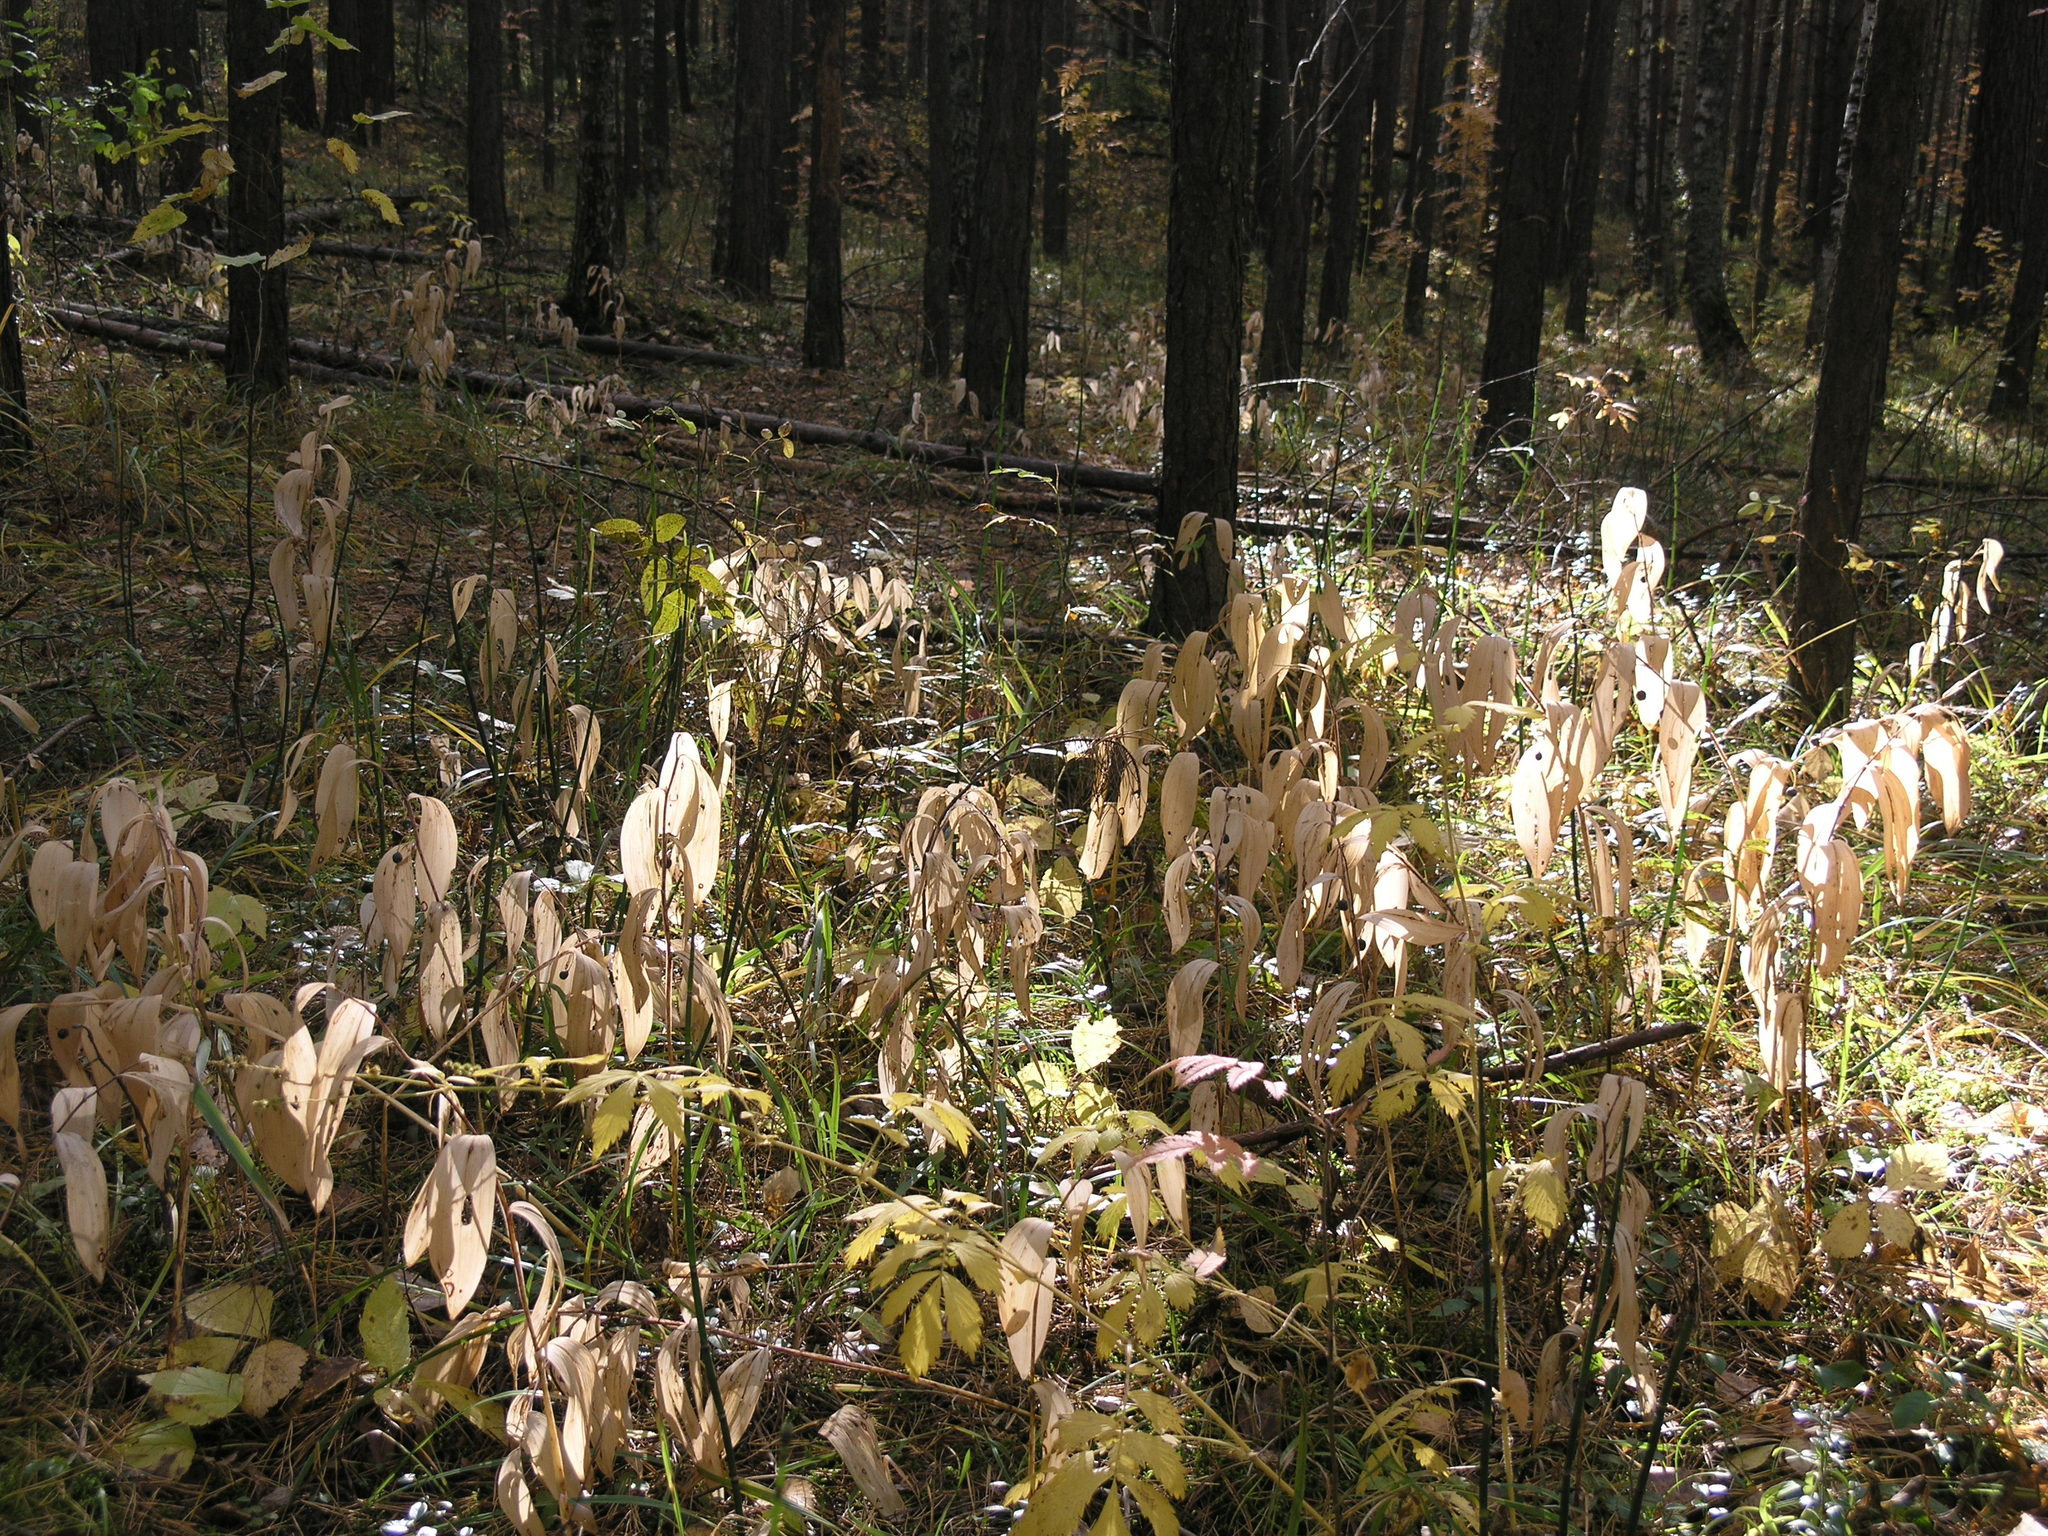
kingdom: Plantae
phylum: Tracheophyta
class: Liliopsida
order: Asparagales
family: Asparagaceae
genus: Polygonatum
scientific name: Polygonatum odoratum
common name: Angular solomon's-seal
